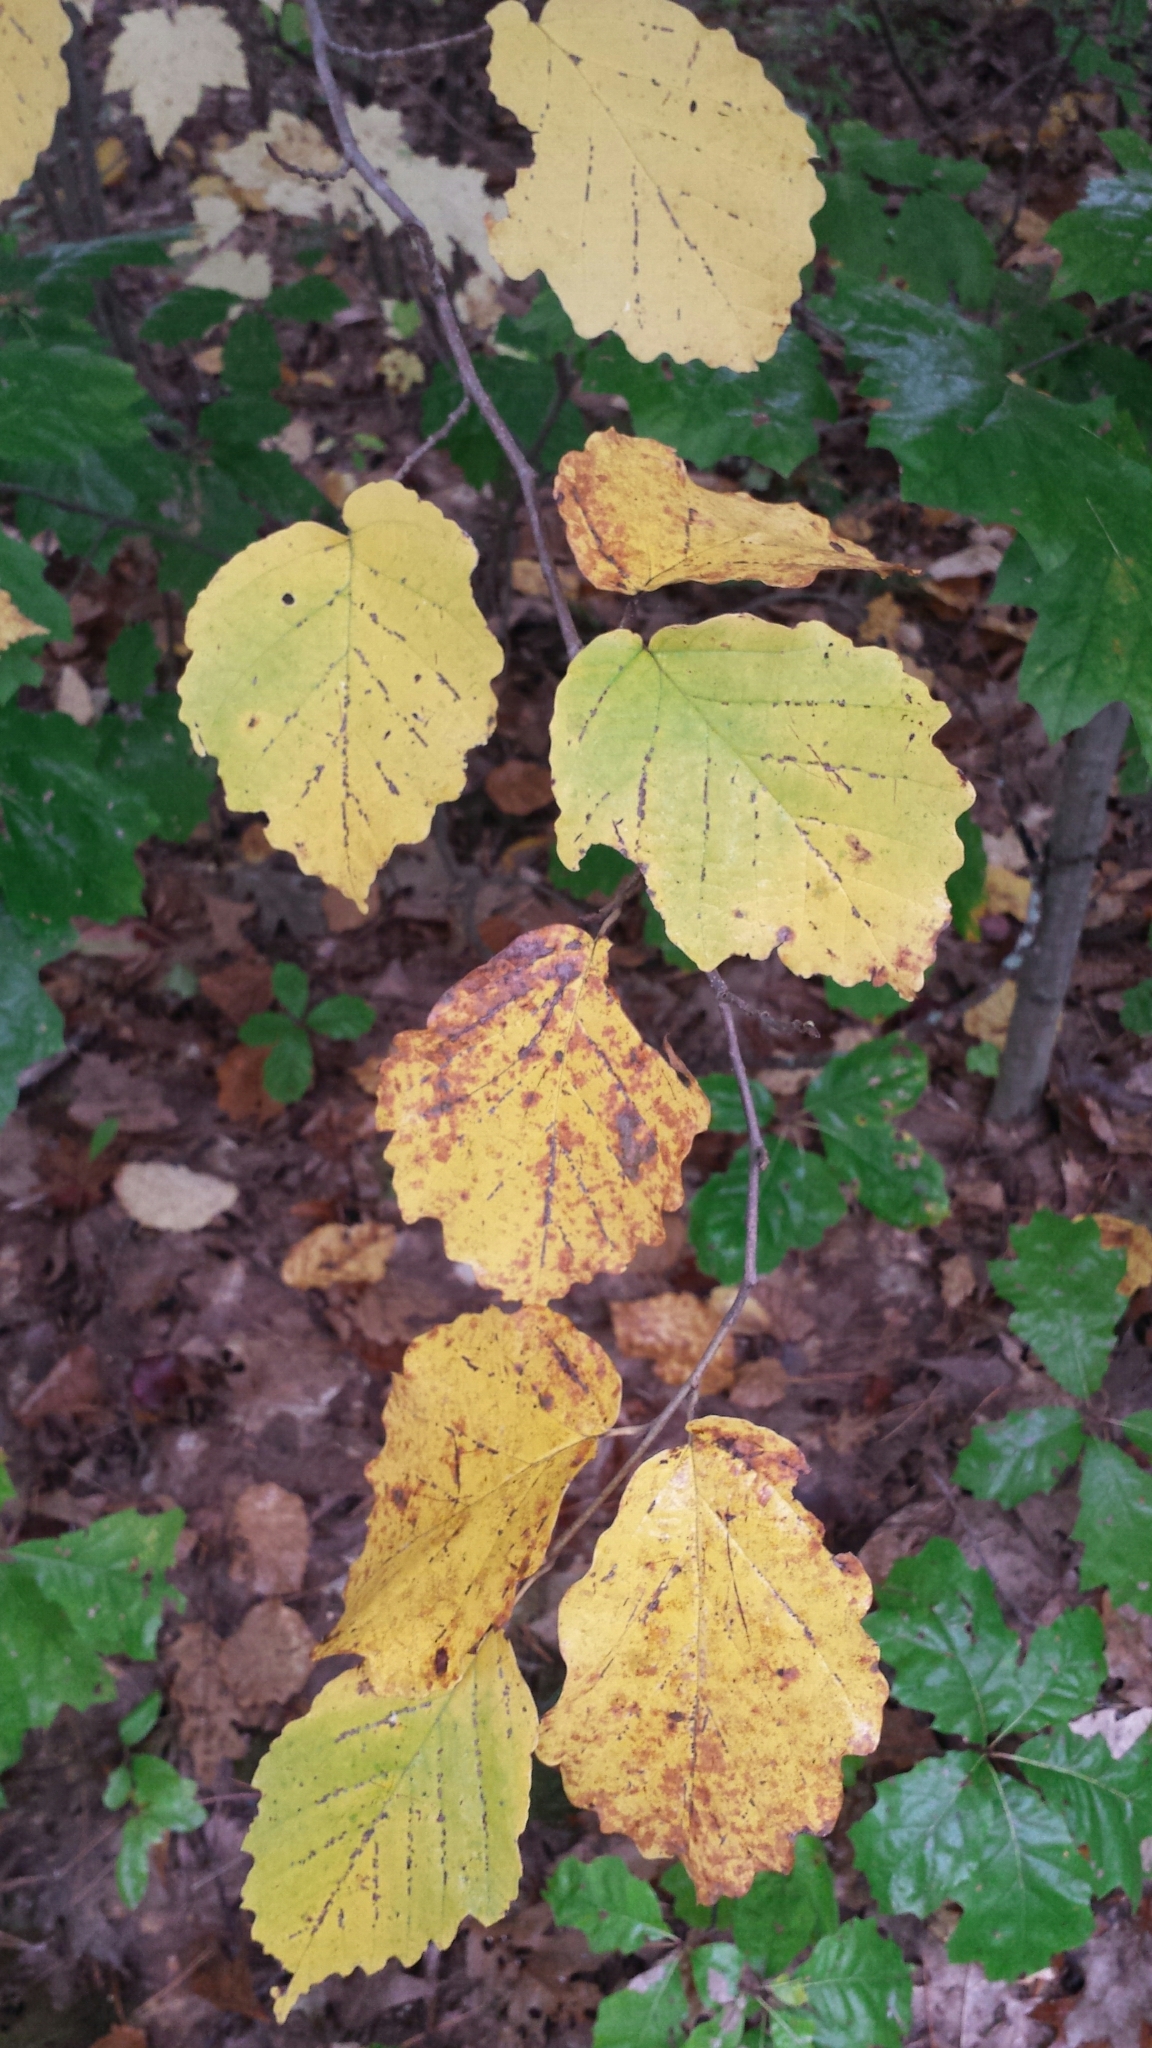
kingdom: Plantae
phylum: Tracheophyta
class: Magnoliopsida
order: Saxifragales
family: Hamamelidaceae
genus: Hamamelis
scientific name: Hamamelis virginiana
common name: Witch-hazel
